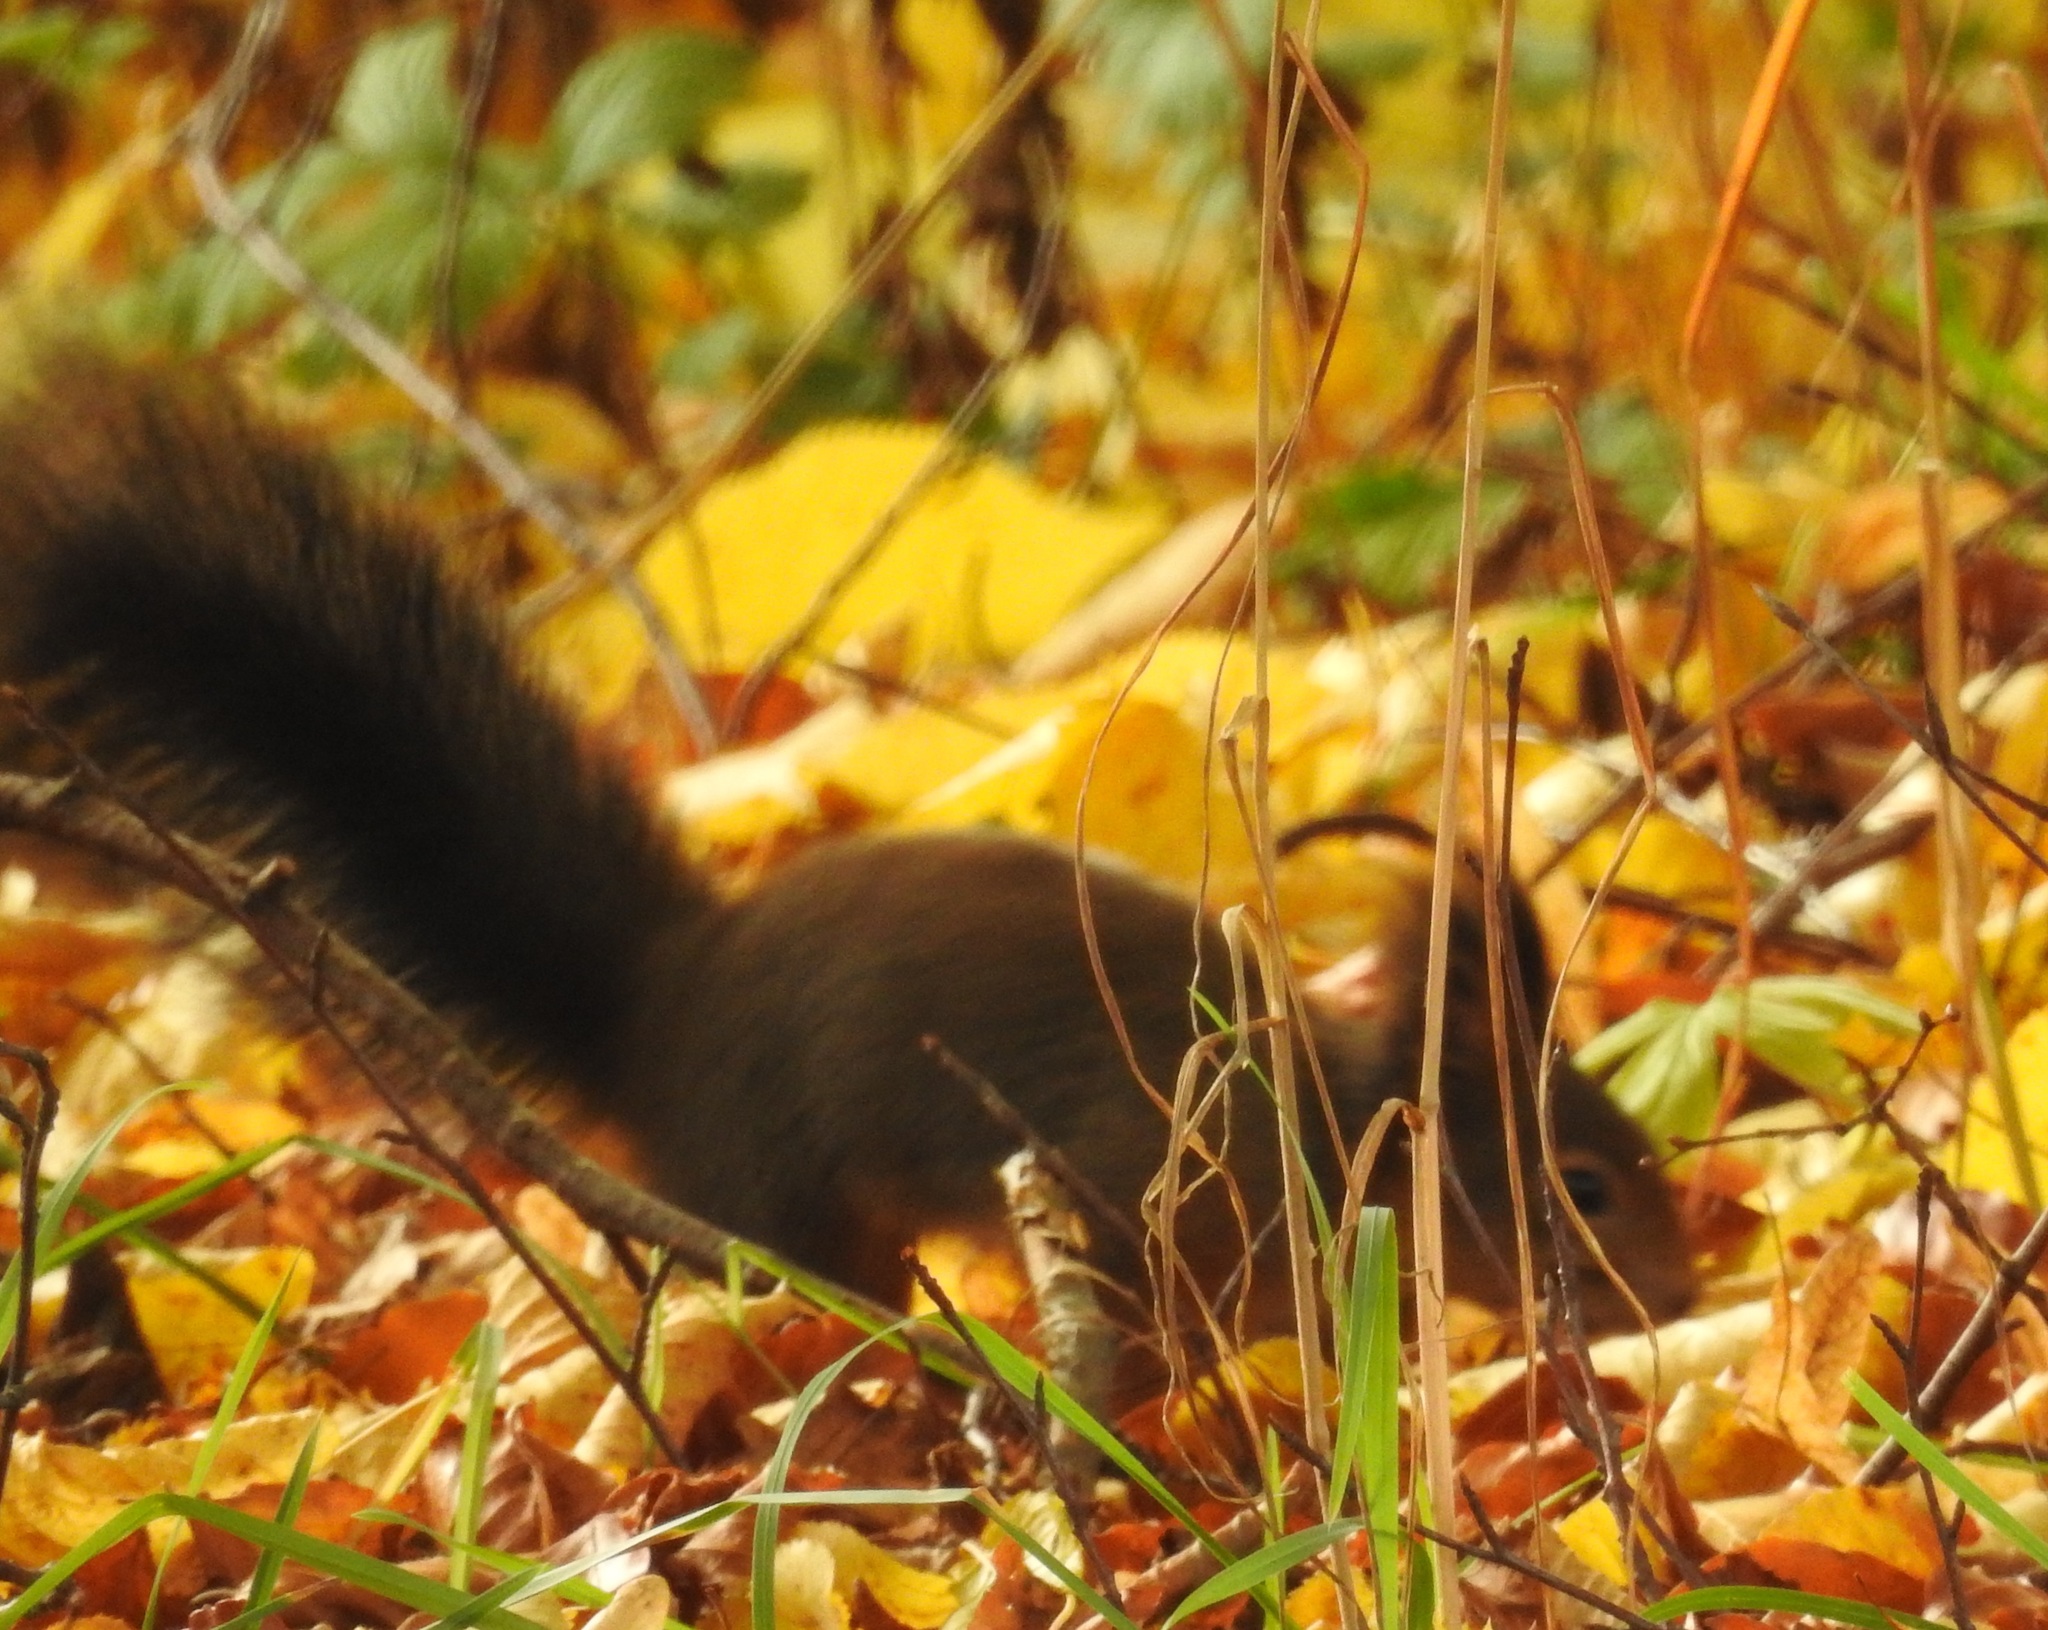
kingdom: Animalia
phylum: Chordata
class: Mammalia
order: Rodentia
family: Sciuridae
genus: Sciurus
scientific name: Sciurus vulgaris
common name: Eurasian red squirrel
